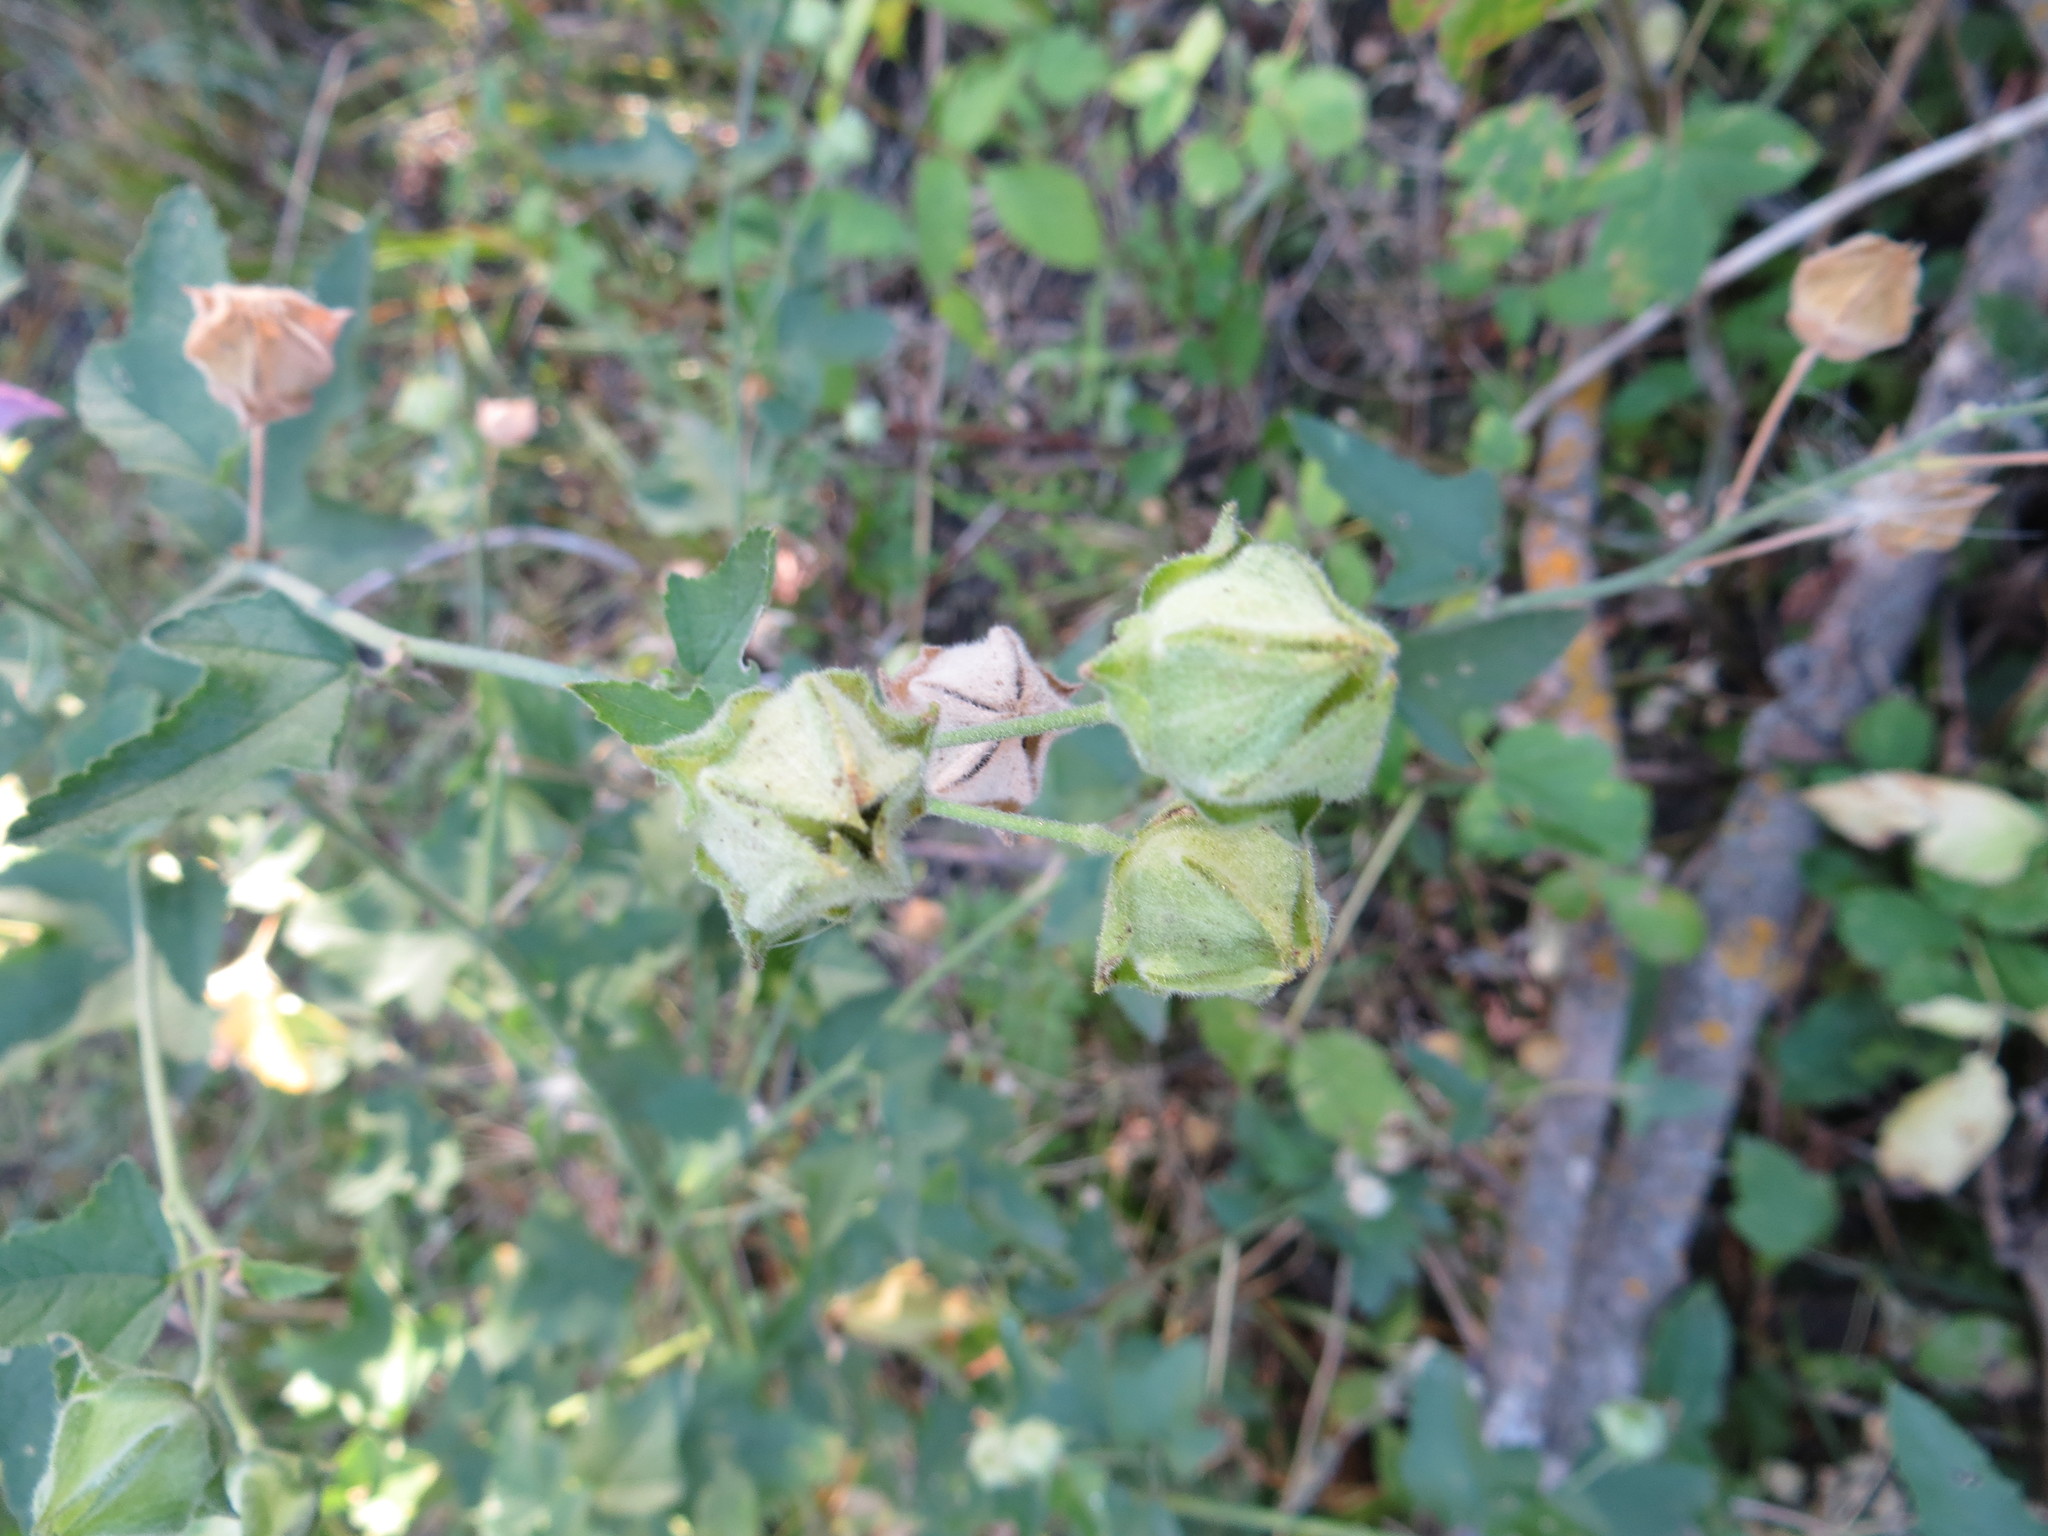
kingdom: Plantae
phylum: Tracheophyta
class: Magnoliopsida
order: Malvales
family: Malvaceae
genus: Malva
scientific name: Malva thuringiaca
